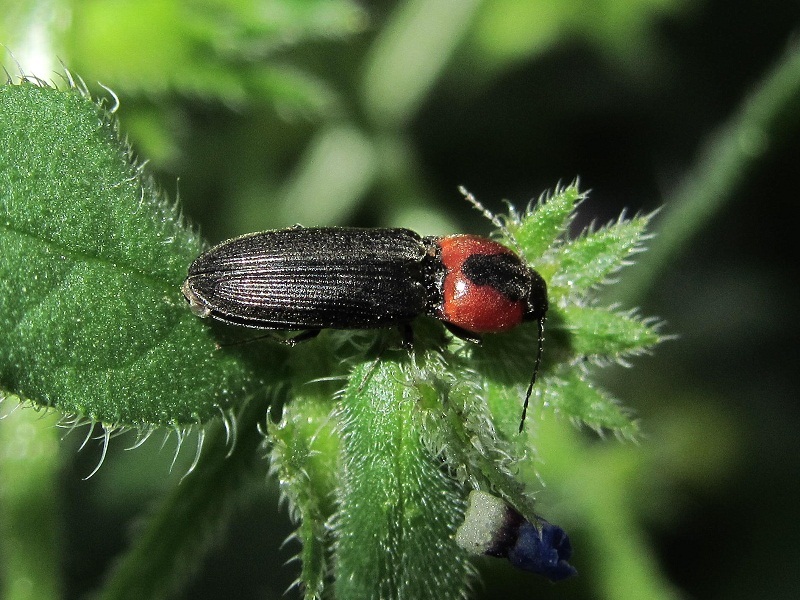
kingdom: Animalia
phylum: Arthropoda
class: Insecta
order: Coleoptera
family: Elateridae
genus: Cardiophorus
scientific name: Cardiophorus discicollis
